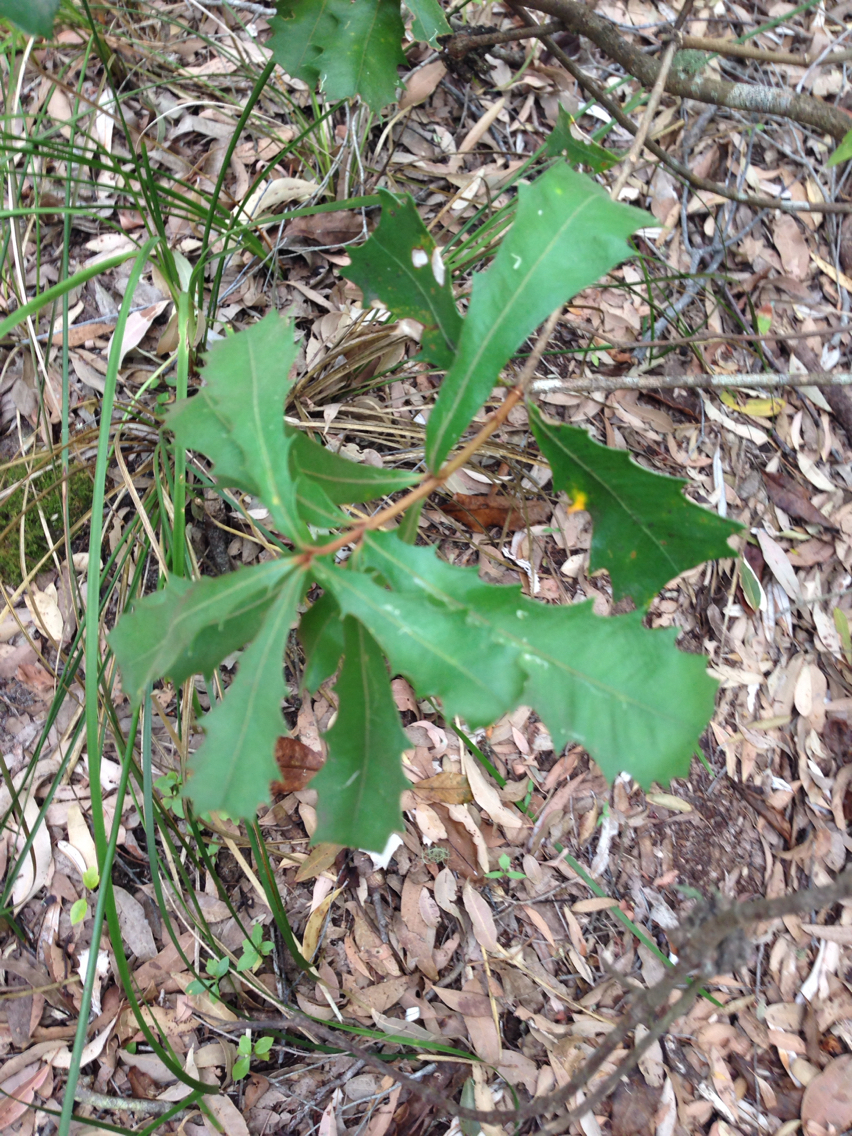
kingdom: Plantae
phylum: Tracheophyta
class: Magnoliopsida
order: Proteales
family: Proteaceae
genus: Banksia
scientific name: Banksia marginata
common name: Silver banksia
